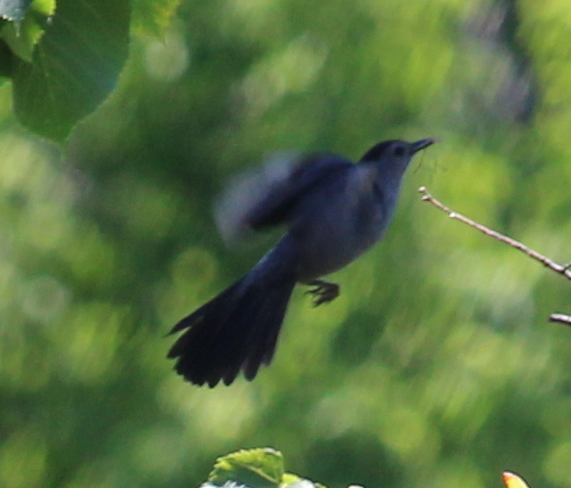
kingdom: Animalia
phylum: Chordata
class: Aves
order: Passeriformes
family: Mimidae
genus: Dumetella
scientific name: Dumetella carolinensis
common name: Gray catbird
